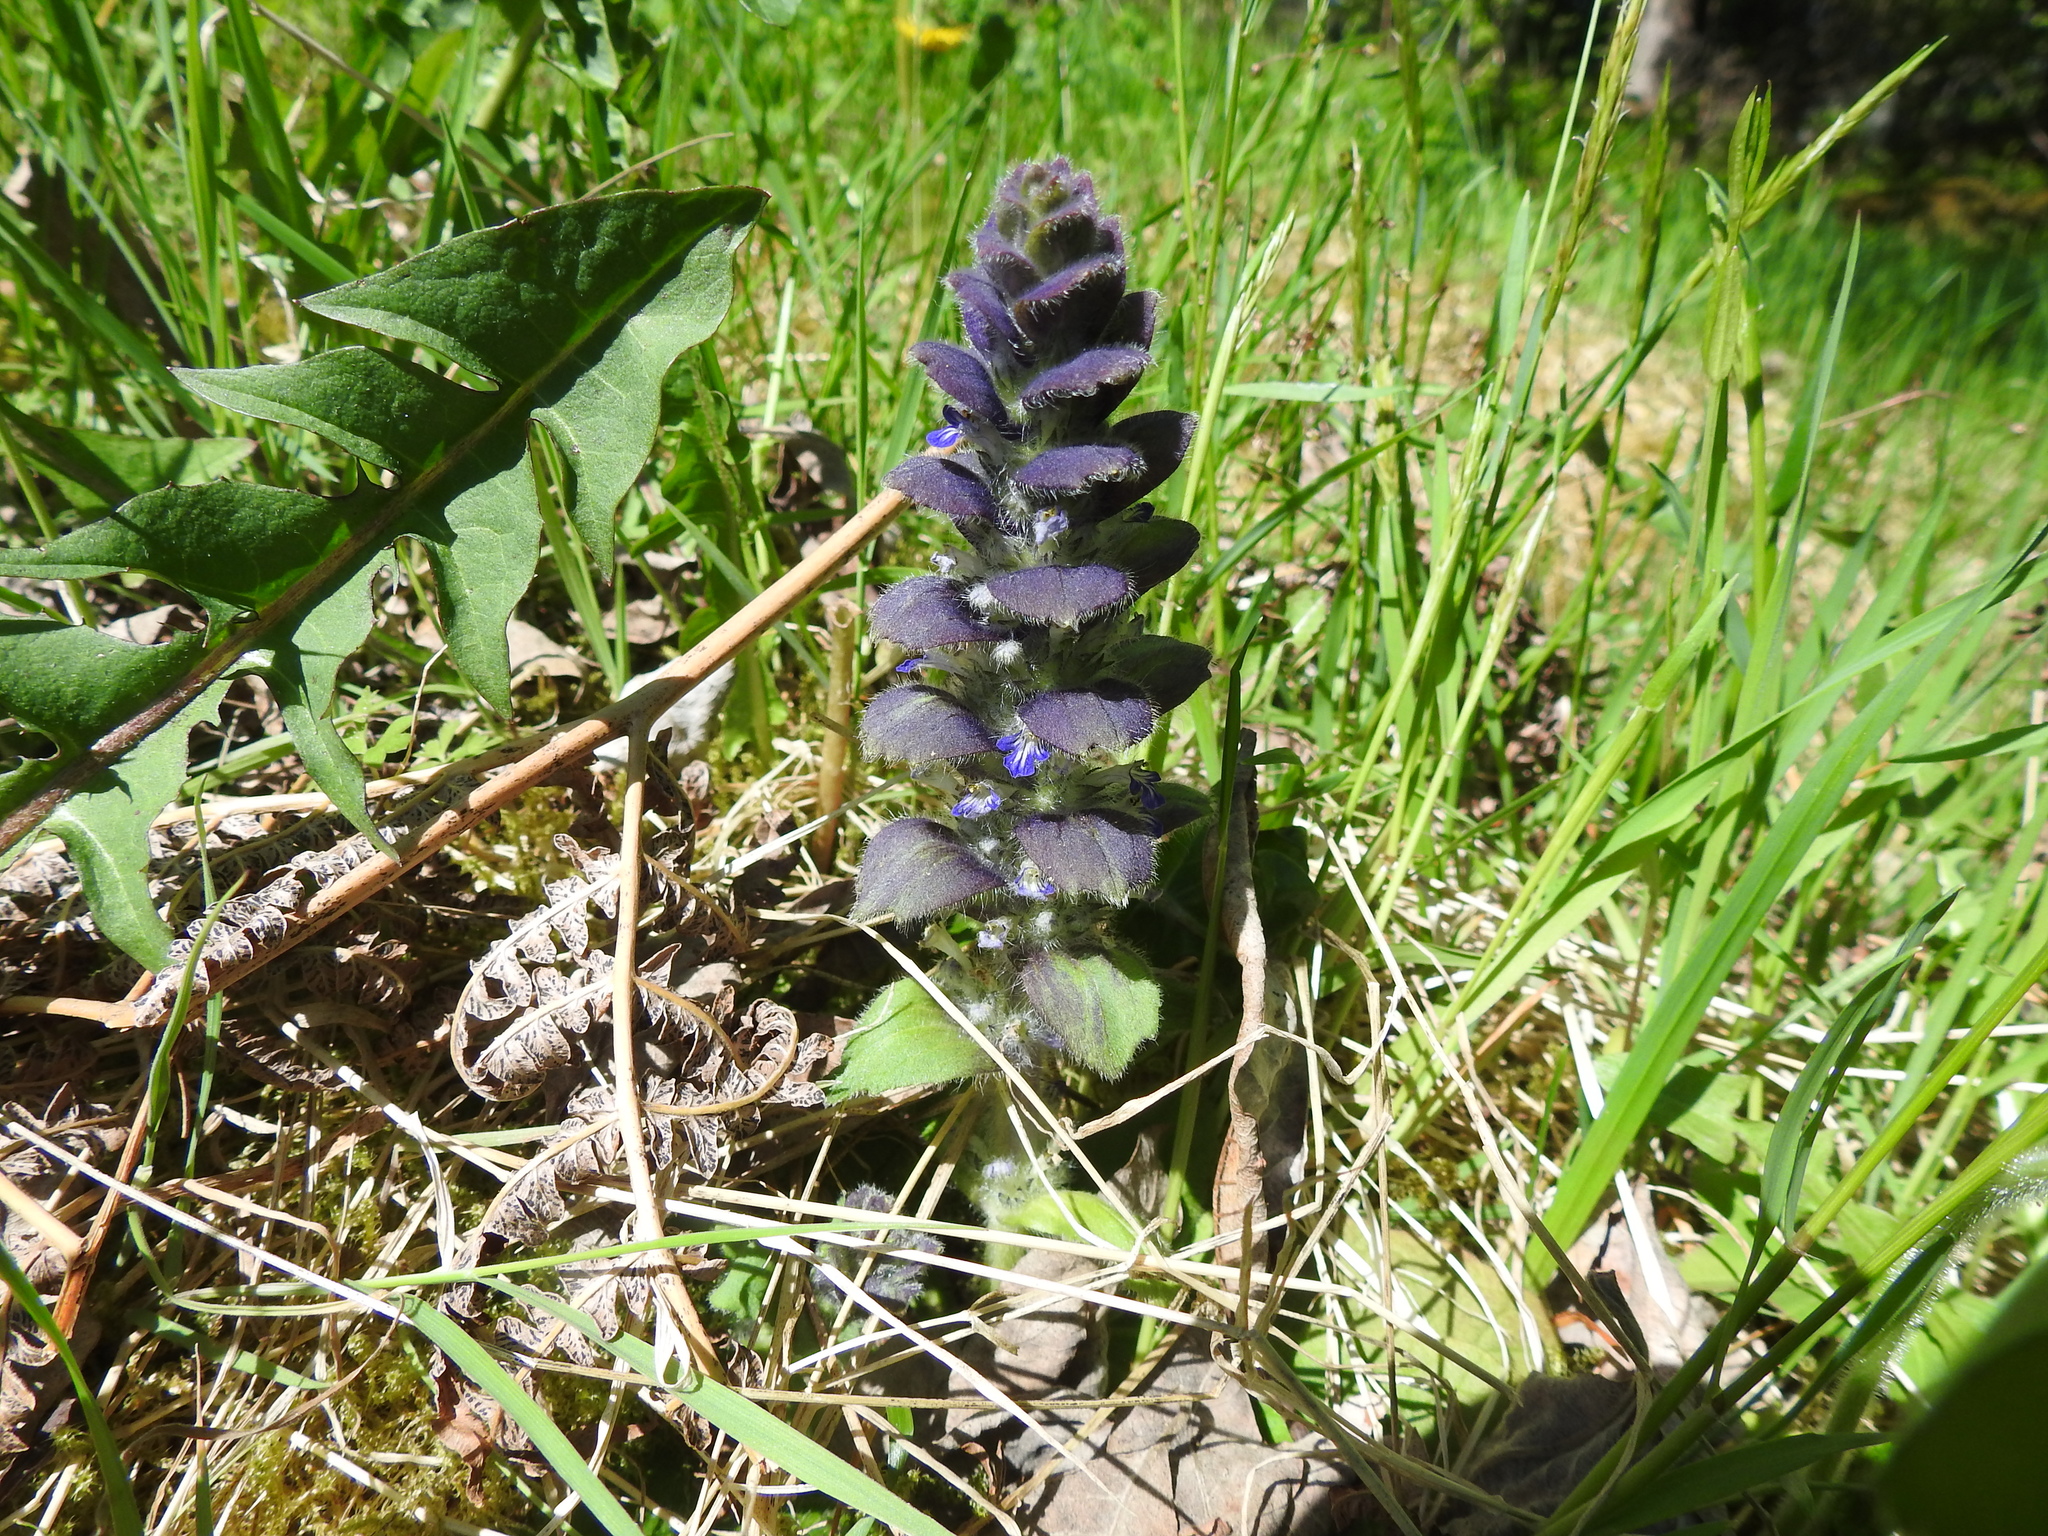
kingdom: Plantae
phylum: Tracheophyta
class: Magnoliopsida
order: Lamiales
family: Lamiaceae
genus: Ajuga
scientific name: Ajuga pyramidalis
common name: Pyramid bugle
